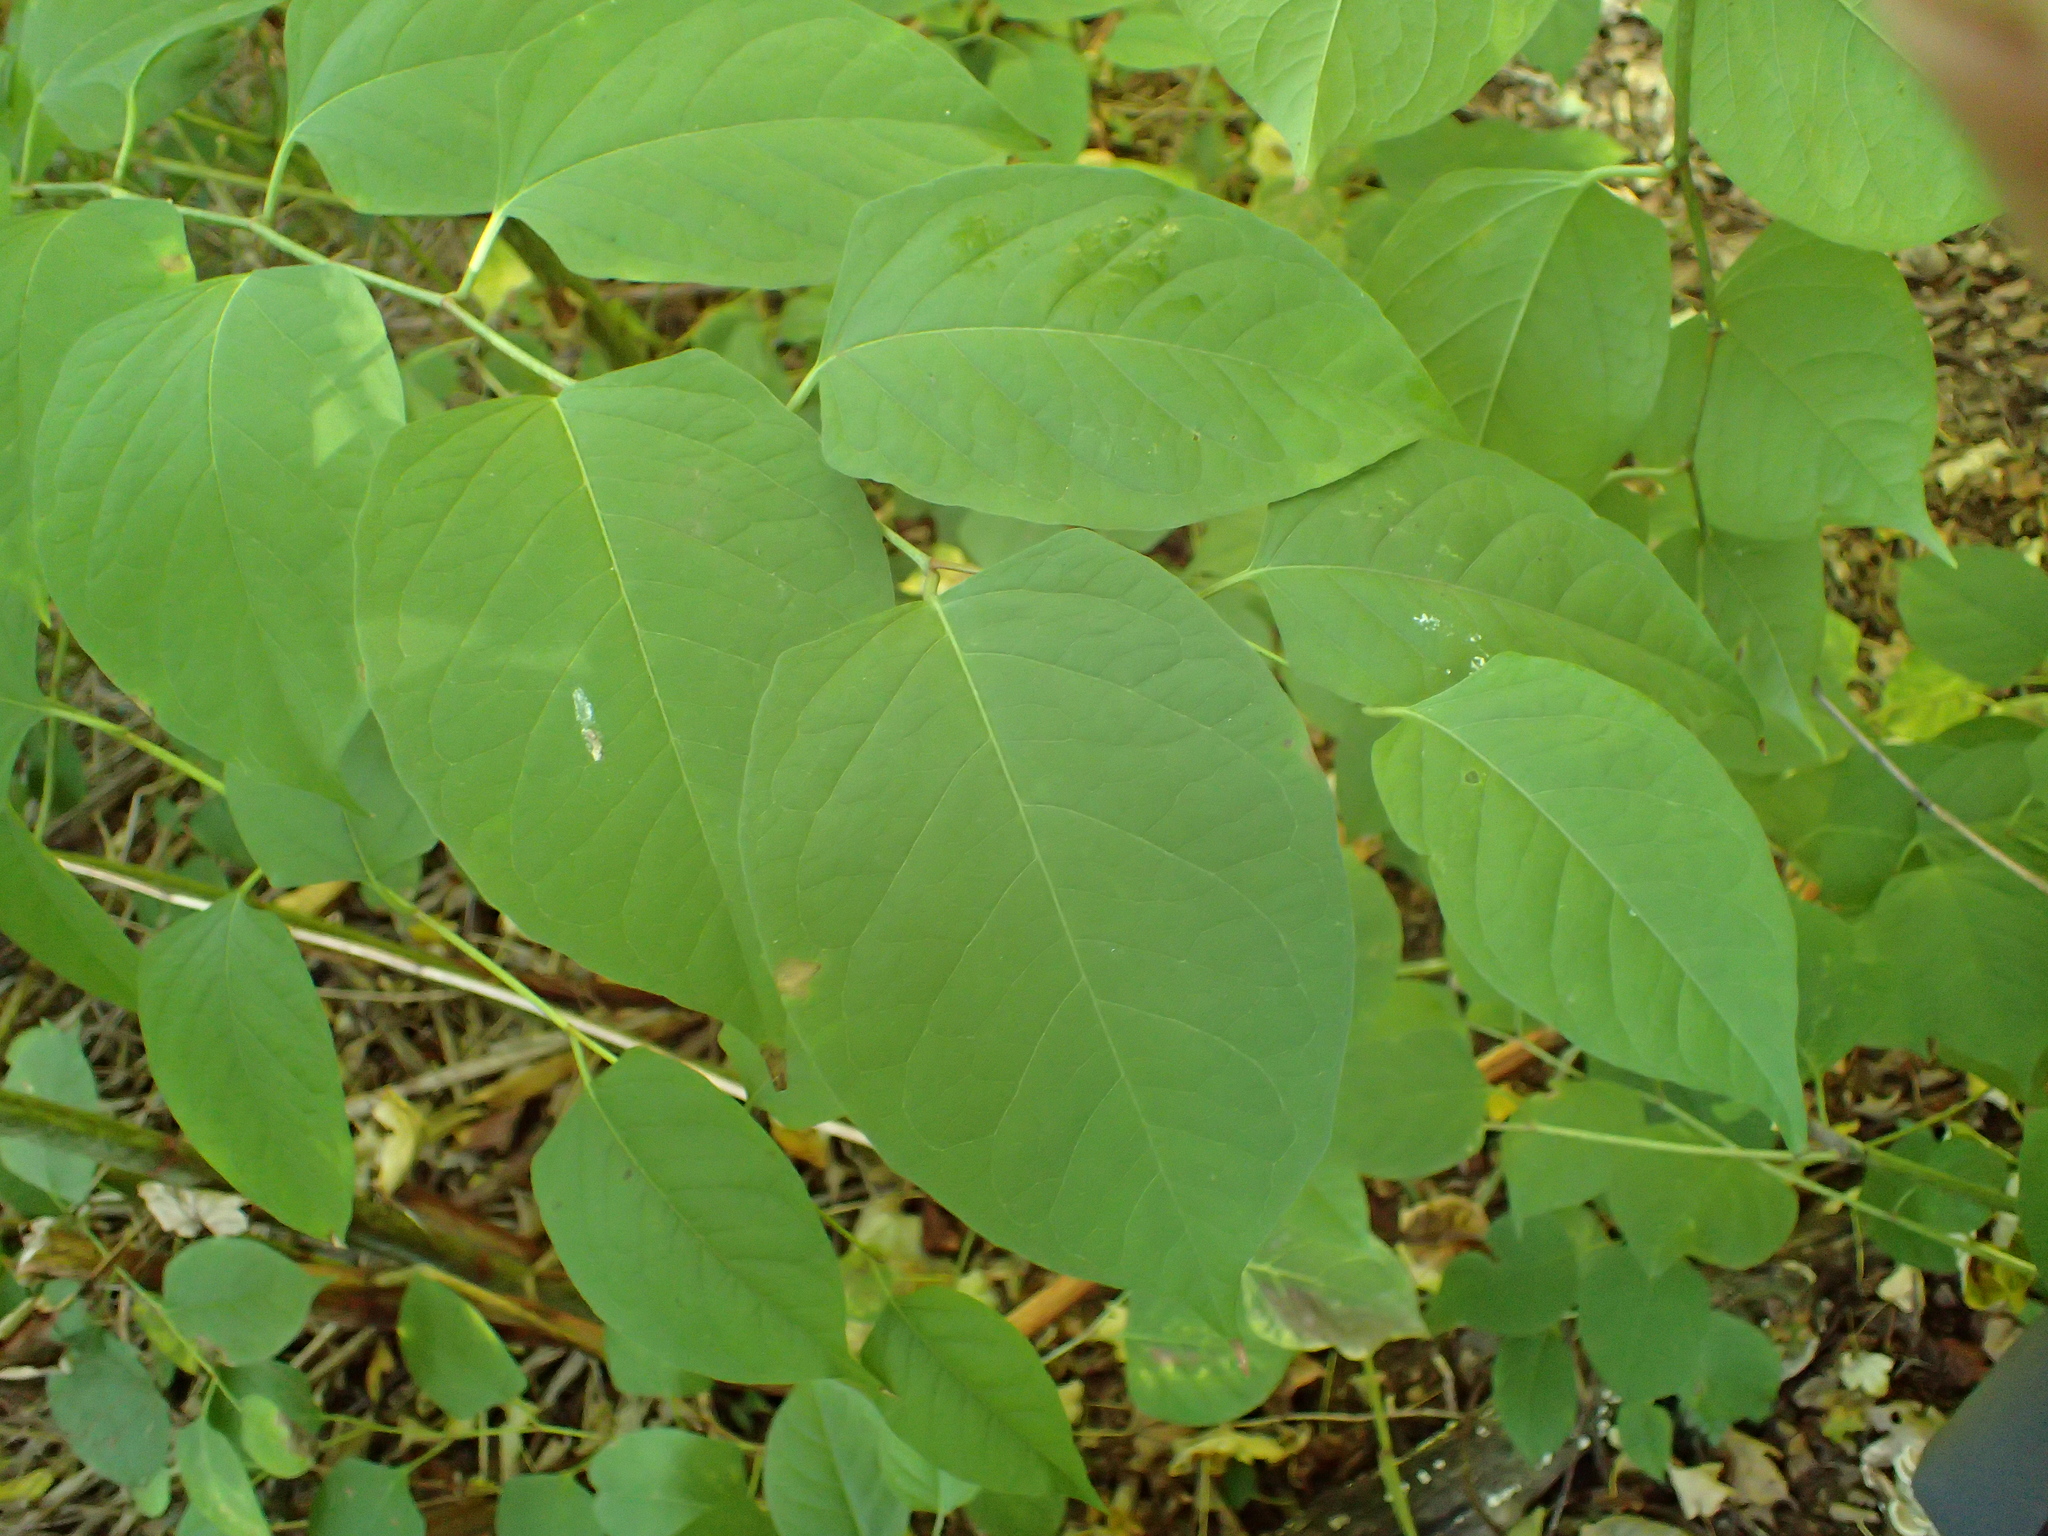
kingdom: Plantae
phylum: Tracheophyta
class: Magnoliopsida
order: Caryophyllales
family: Polygonaceae
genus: Reynoutria
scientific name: Reynoutria japonica
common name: Japanese knotweed
